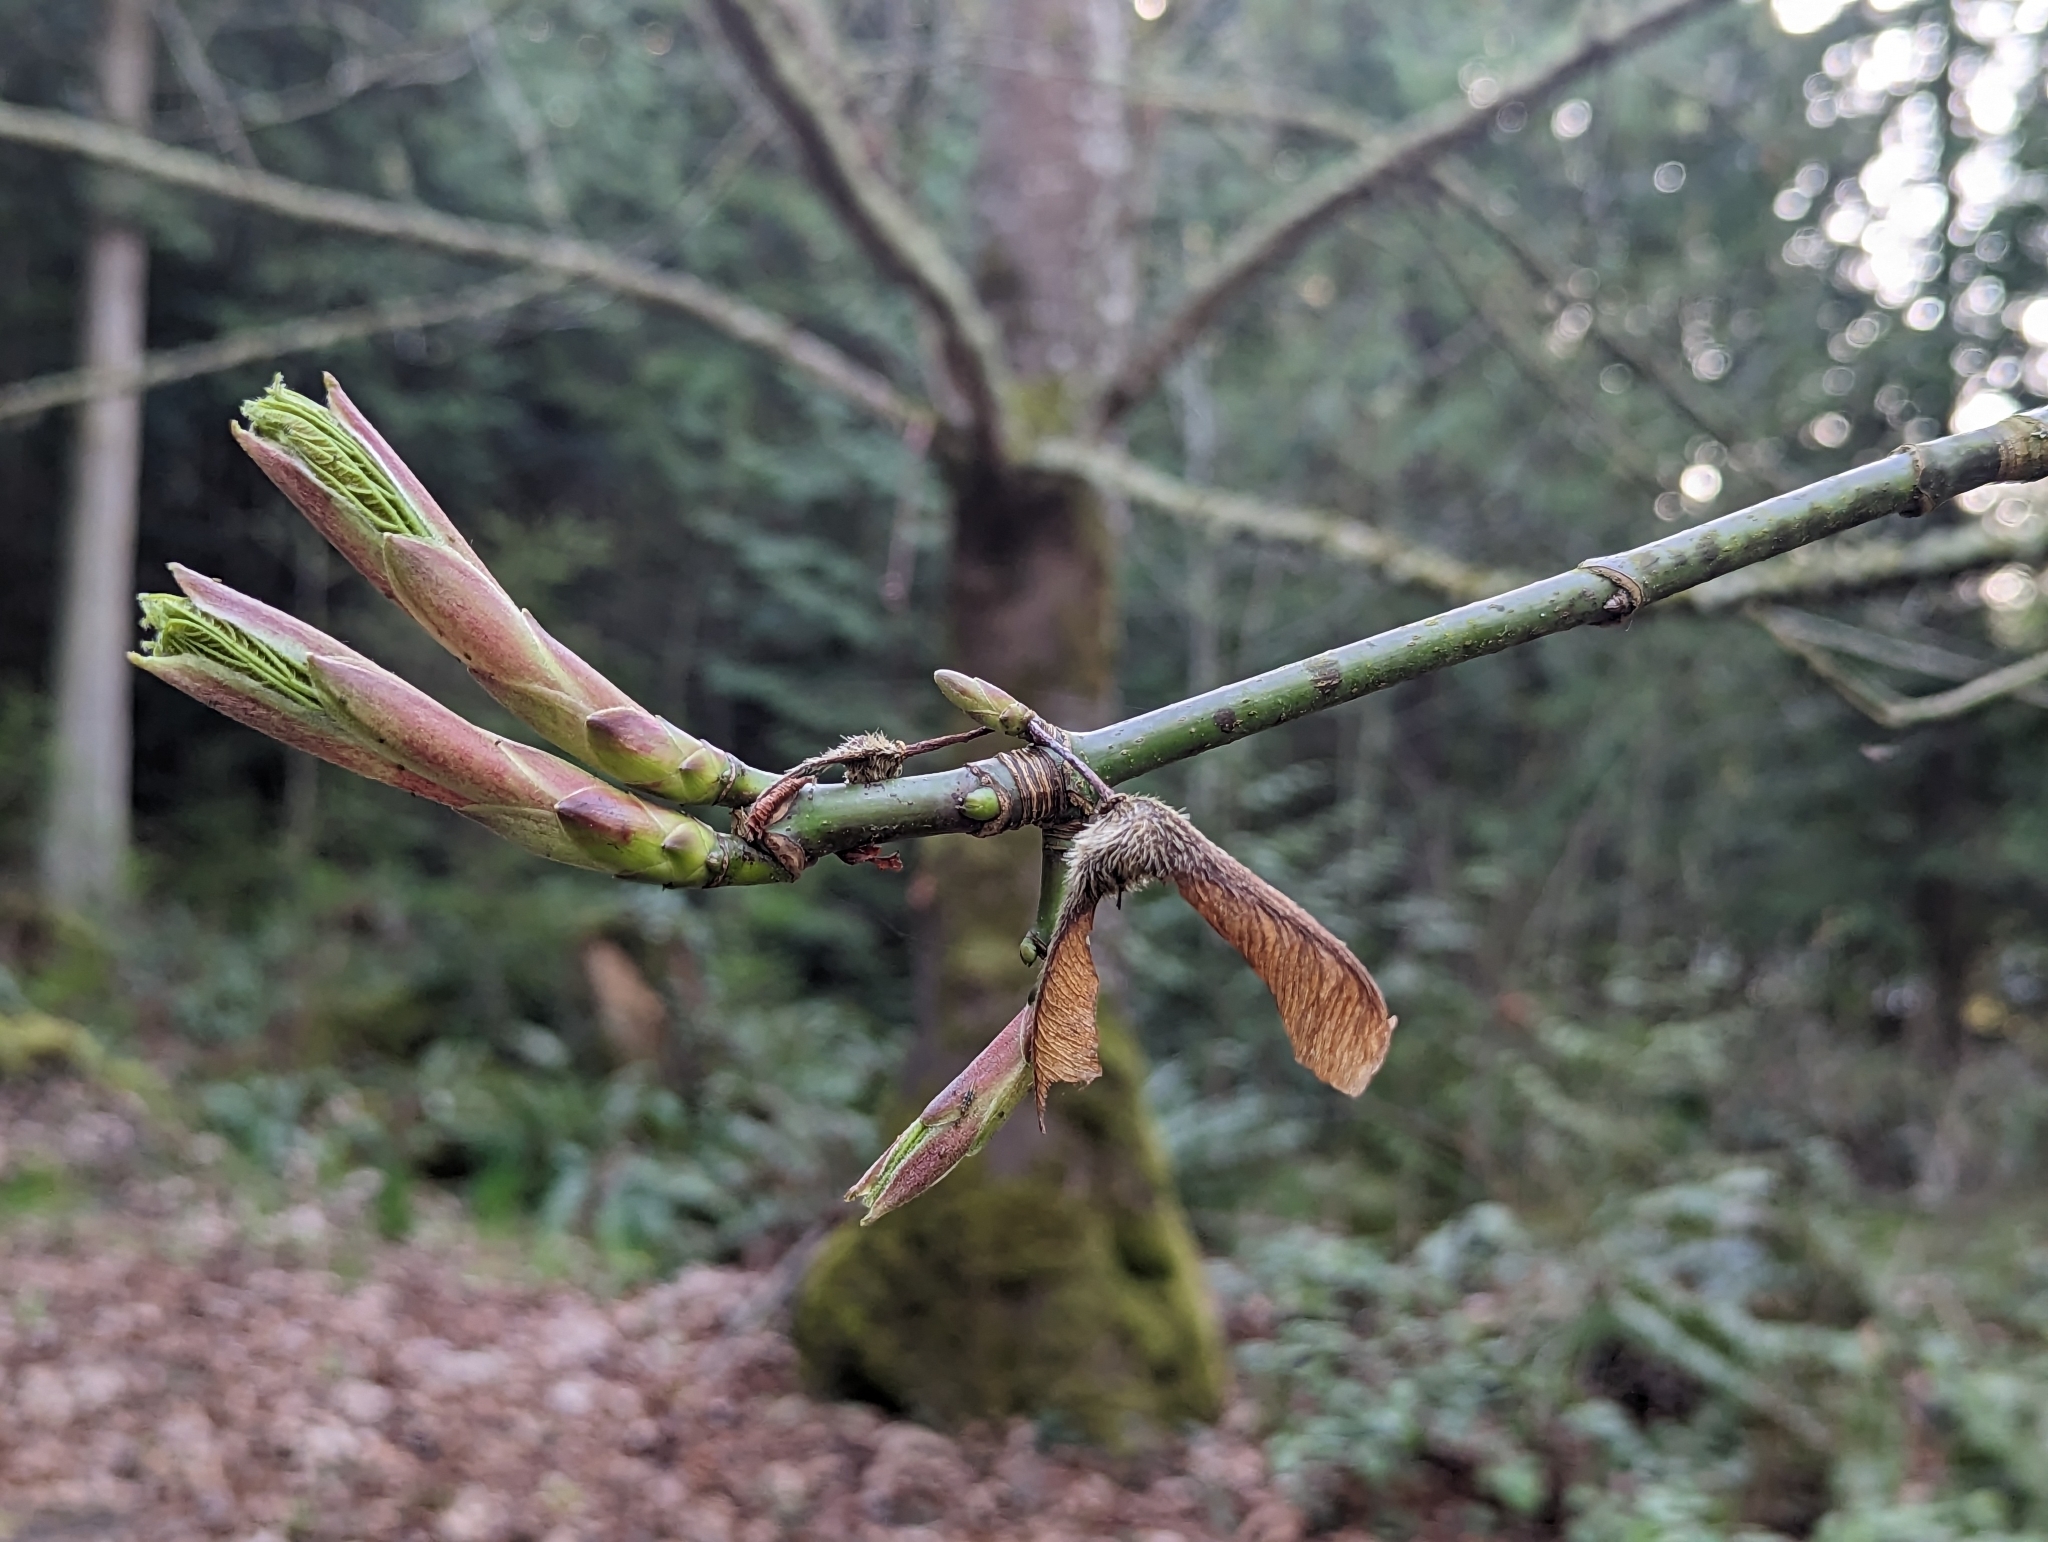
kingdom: Plantae
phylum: Tracheophyta
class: Magnoliopsida
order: Sapindales
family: Sapindaceae
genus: Acer
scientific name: Acer macrophyllum
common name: Oregon maple
